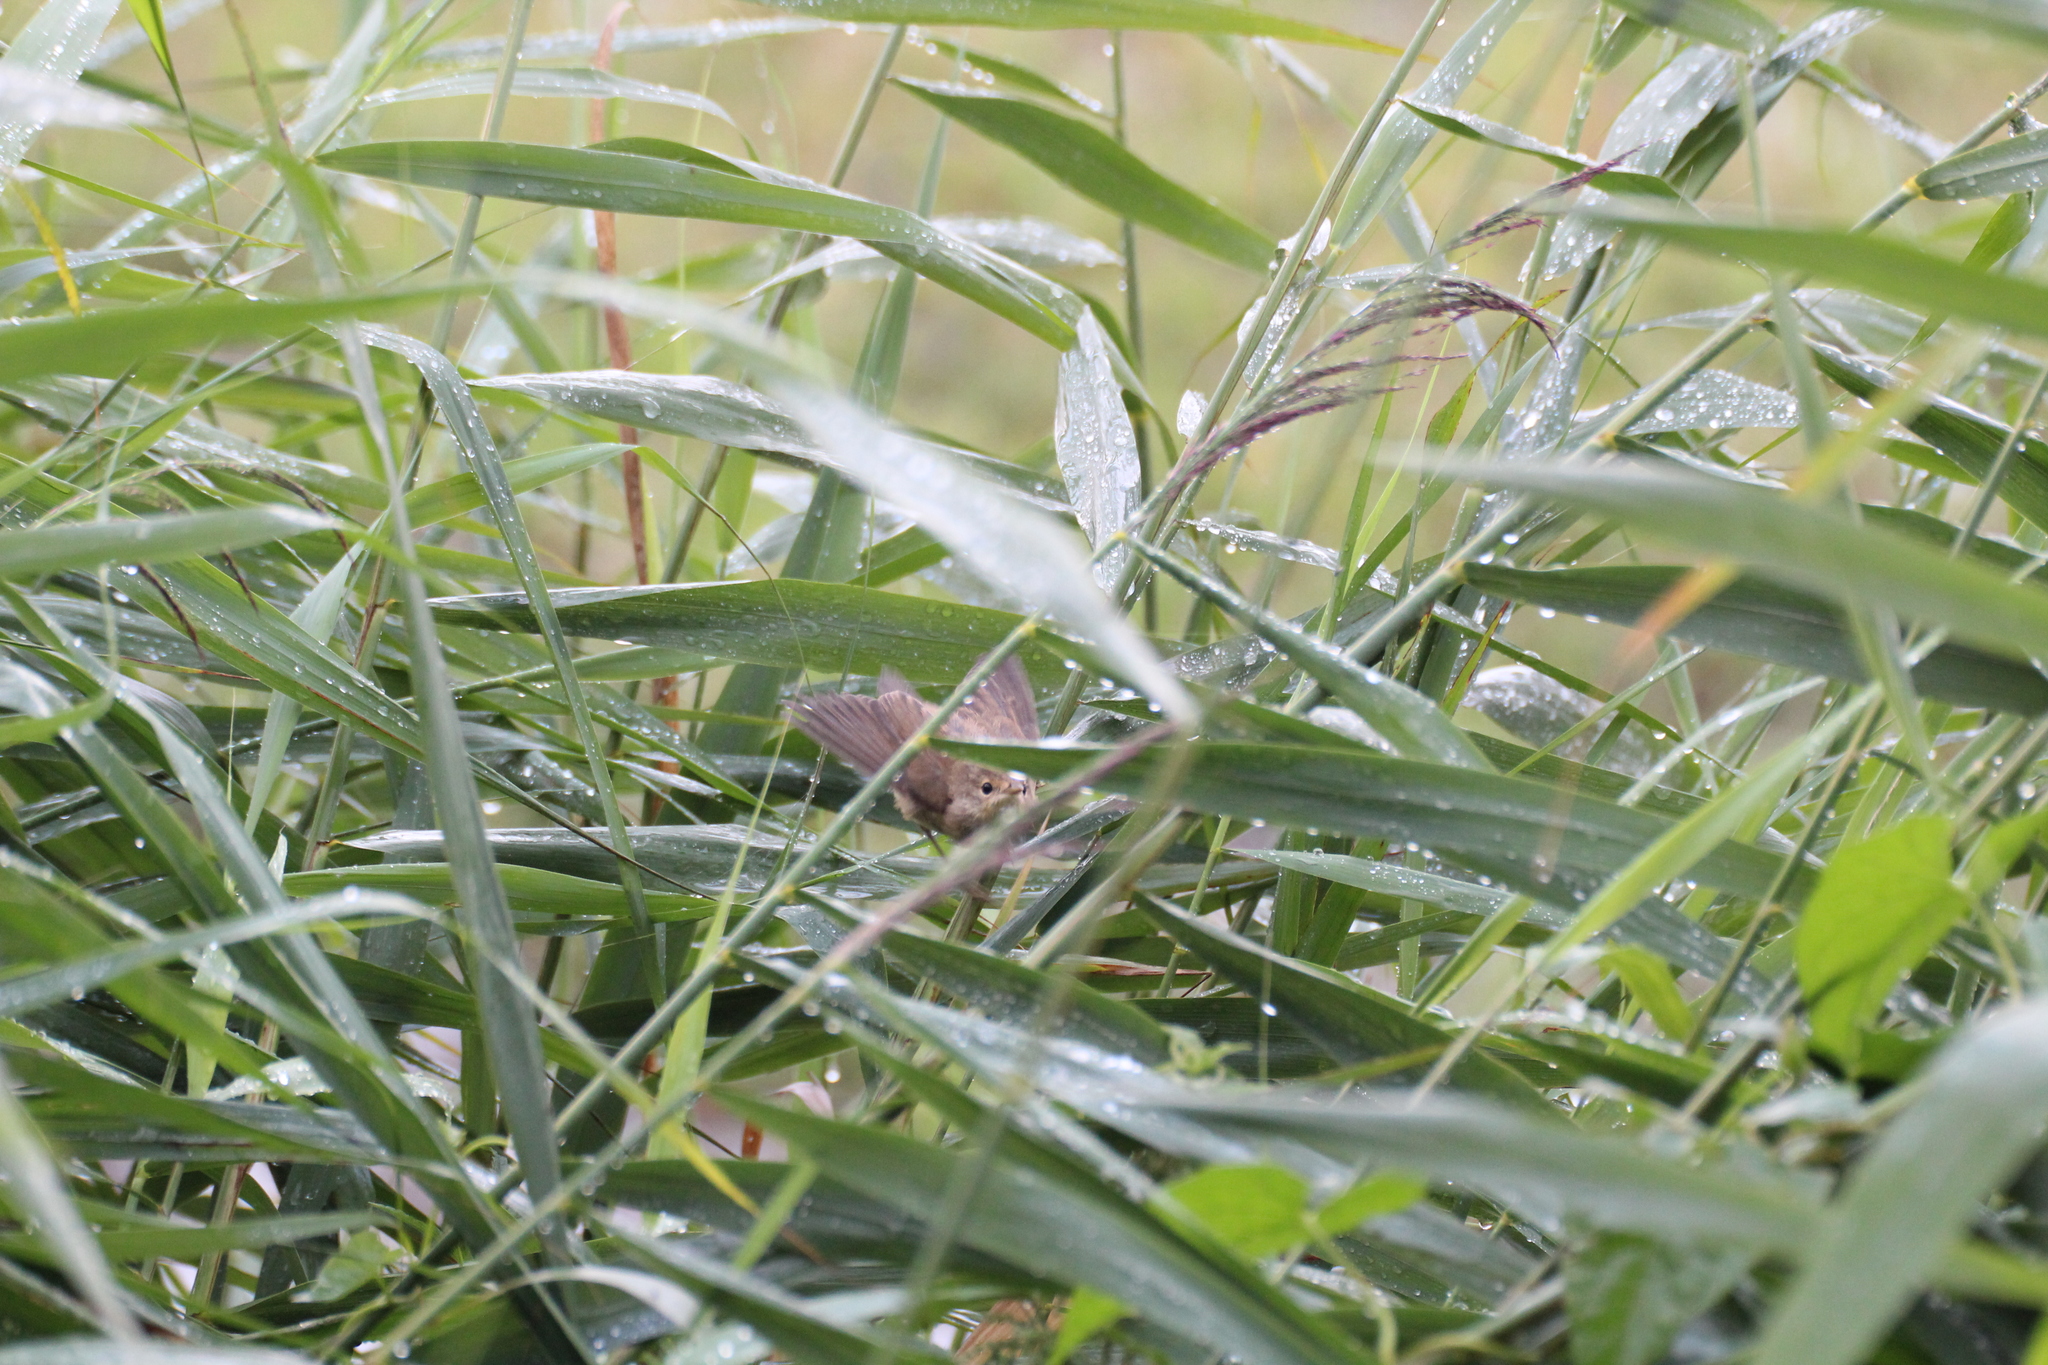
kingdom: Animalia
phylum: Chordata
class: Aves
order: Passeriformes
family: Acrocephalidae
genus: Acrocephalus
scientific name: Acrocephalus scirpaceus
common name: Eurasian reed warbler
